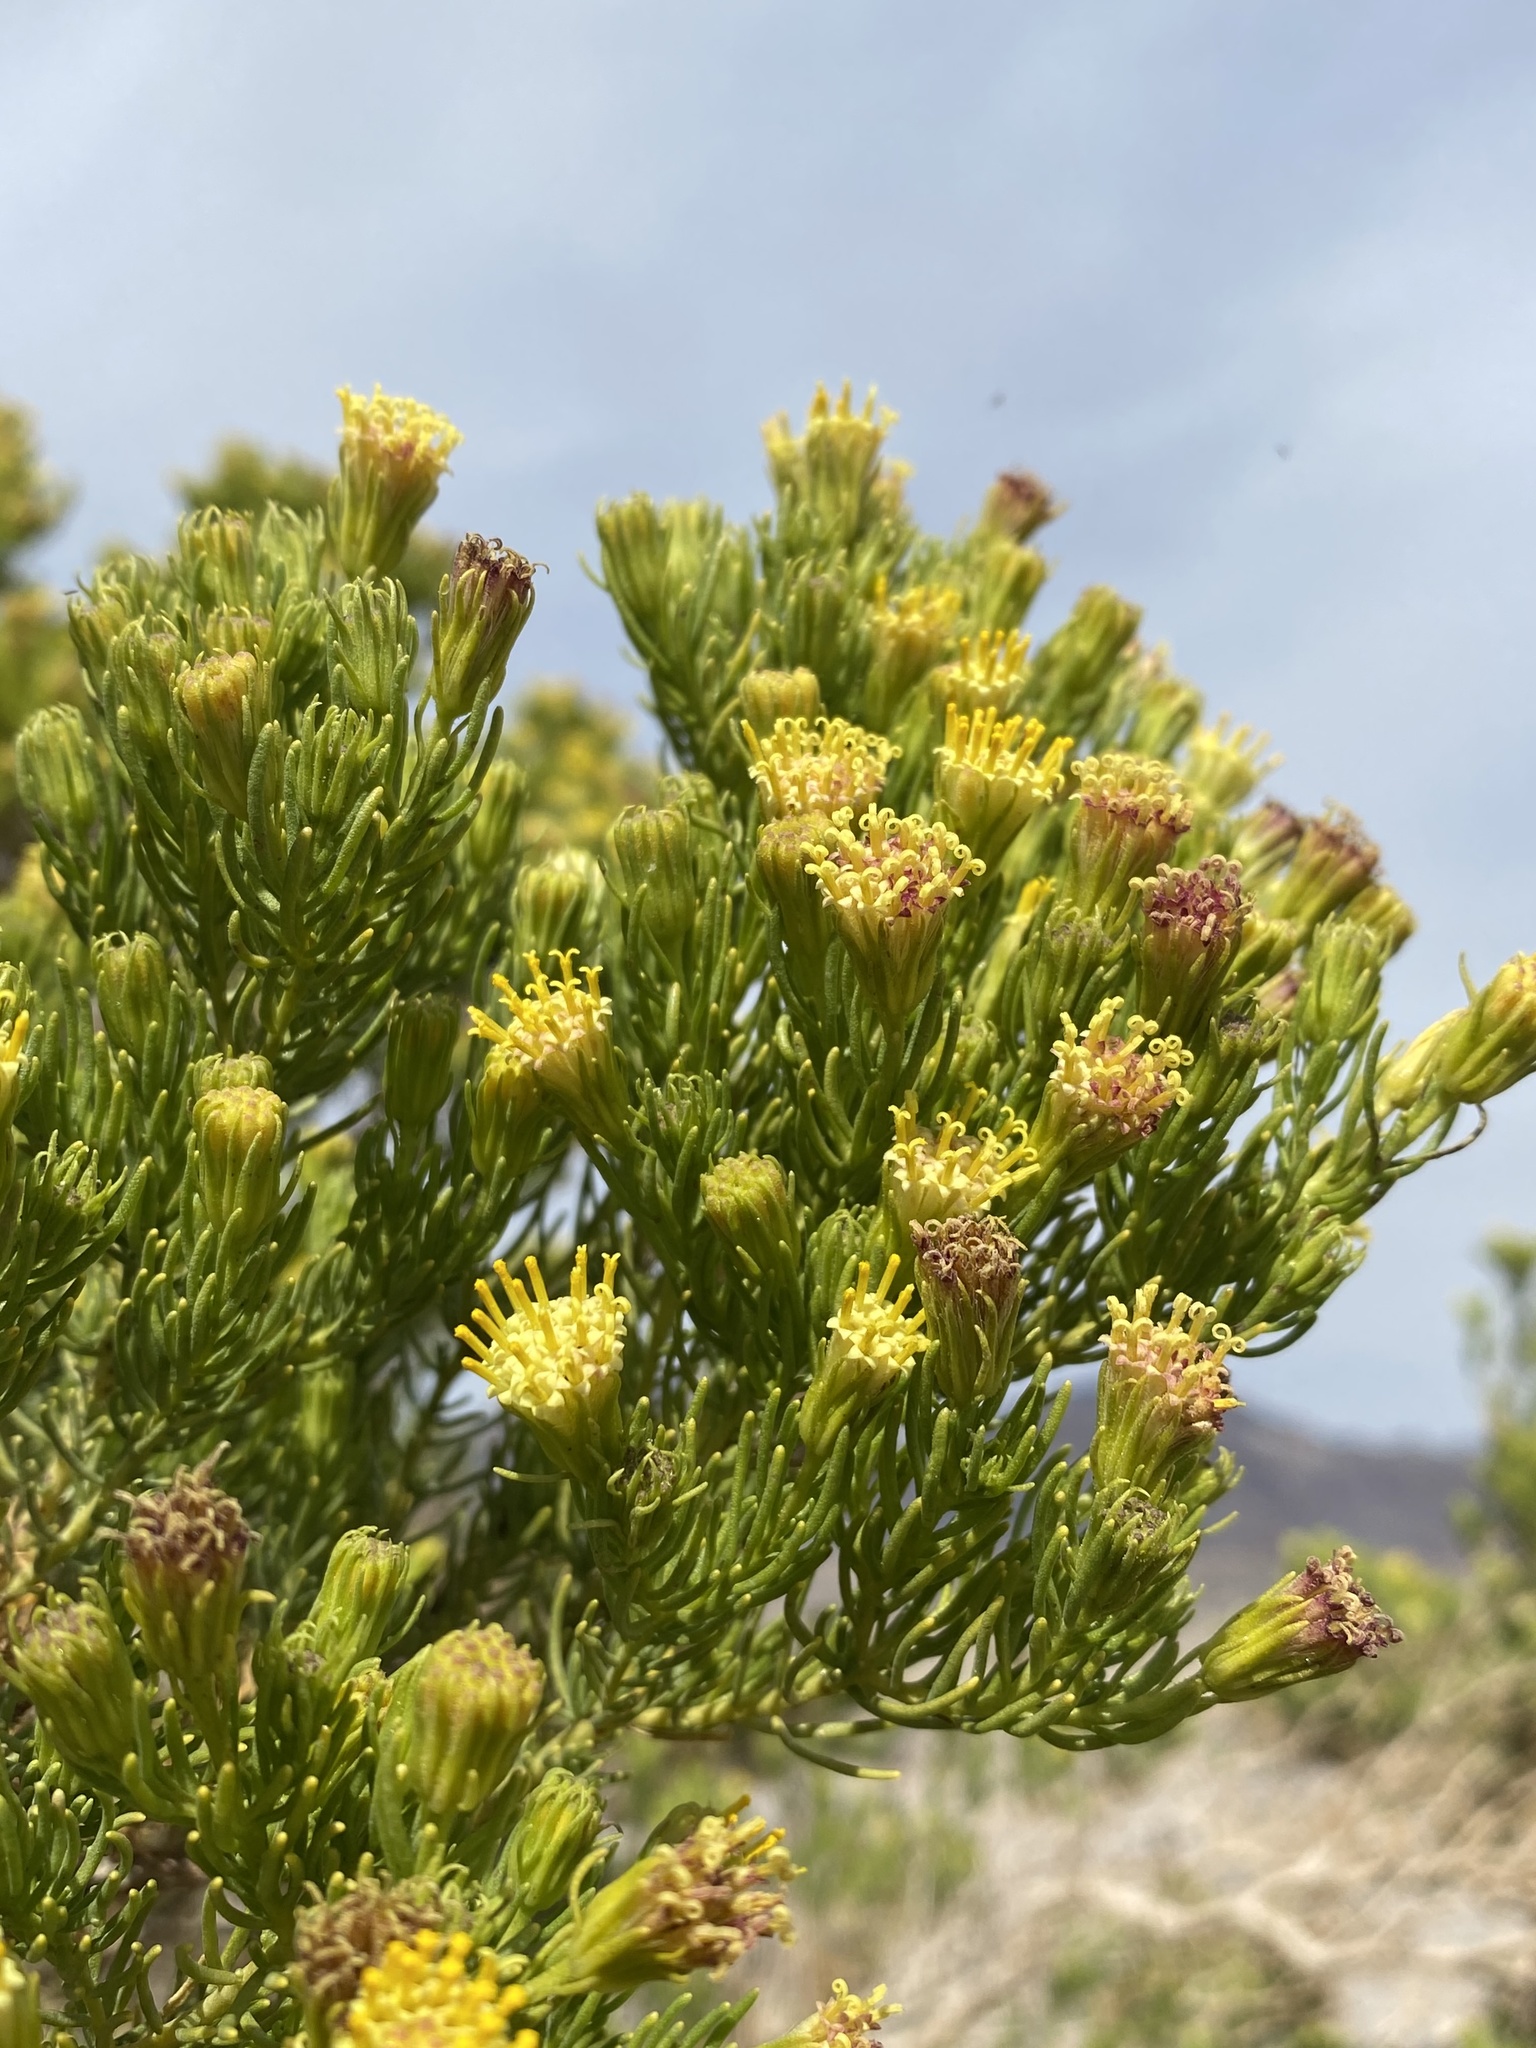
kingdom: Plantae
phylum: Tracheophyta
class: Magnoliopsida
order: Asterales
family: Asteraceae
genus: Peucephyllum
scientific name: Peucephyllum schottii
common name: Pygmy-cedar
